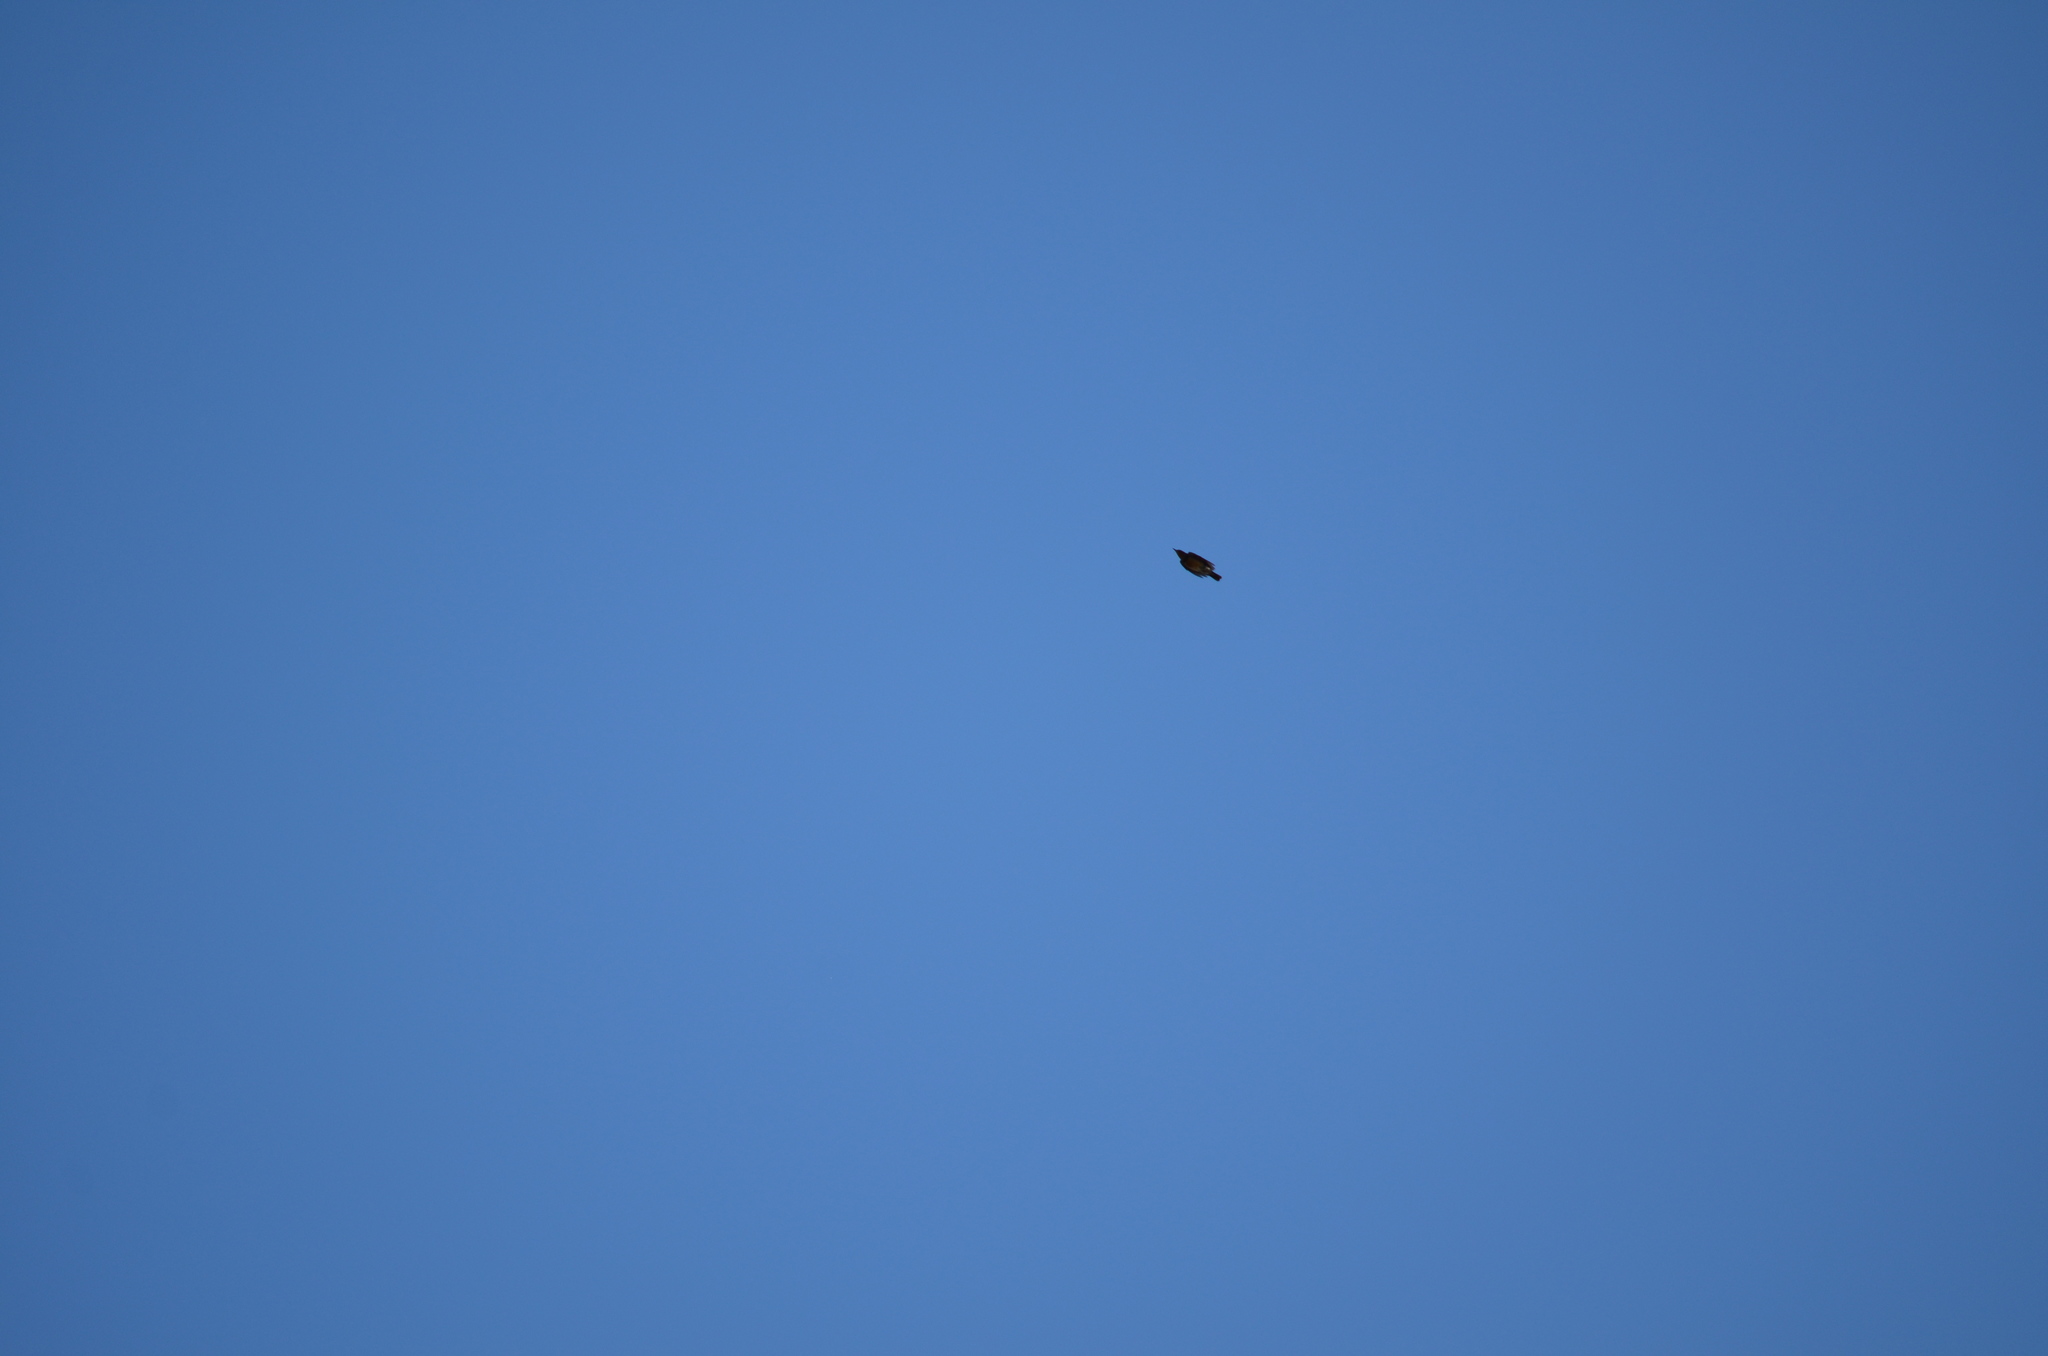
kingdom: Animalia
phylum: Chordata
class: Aves
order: Passeriformes
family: Turdidae
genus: Ixoreus
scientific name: Ixoreus naevius
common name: Varied thrush
